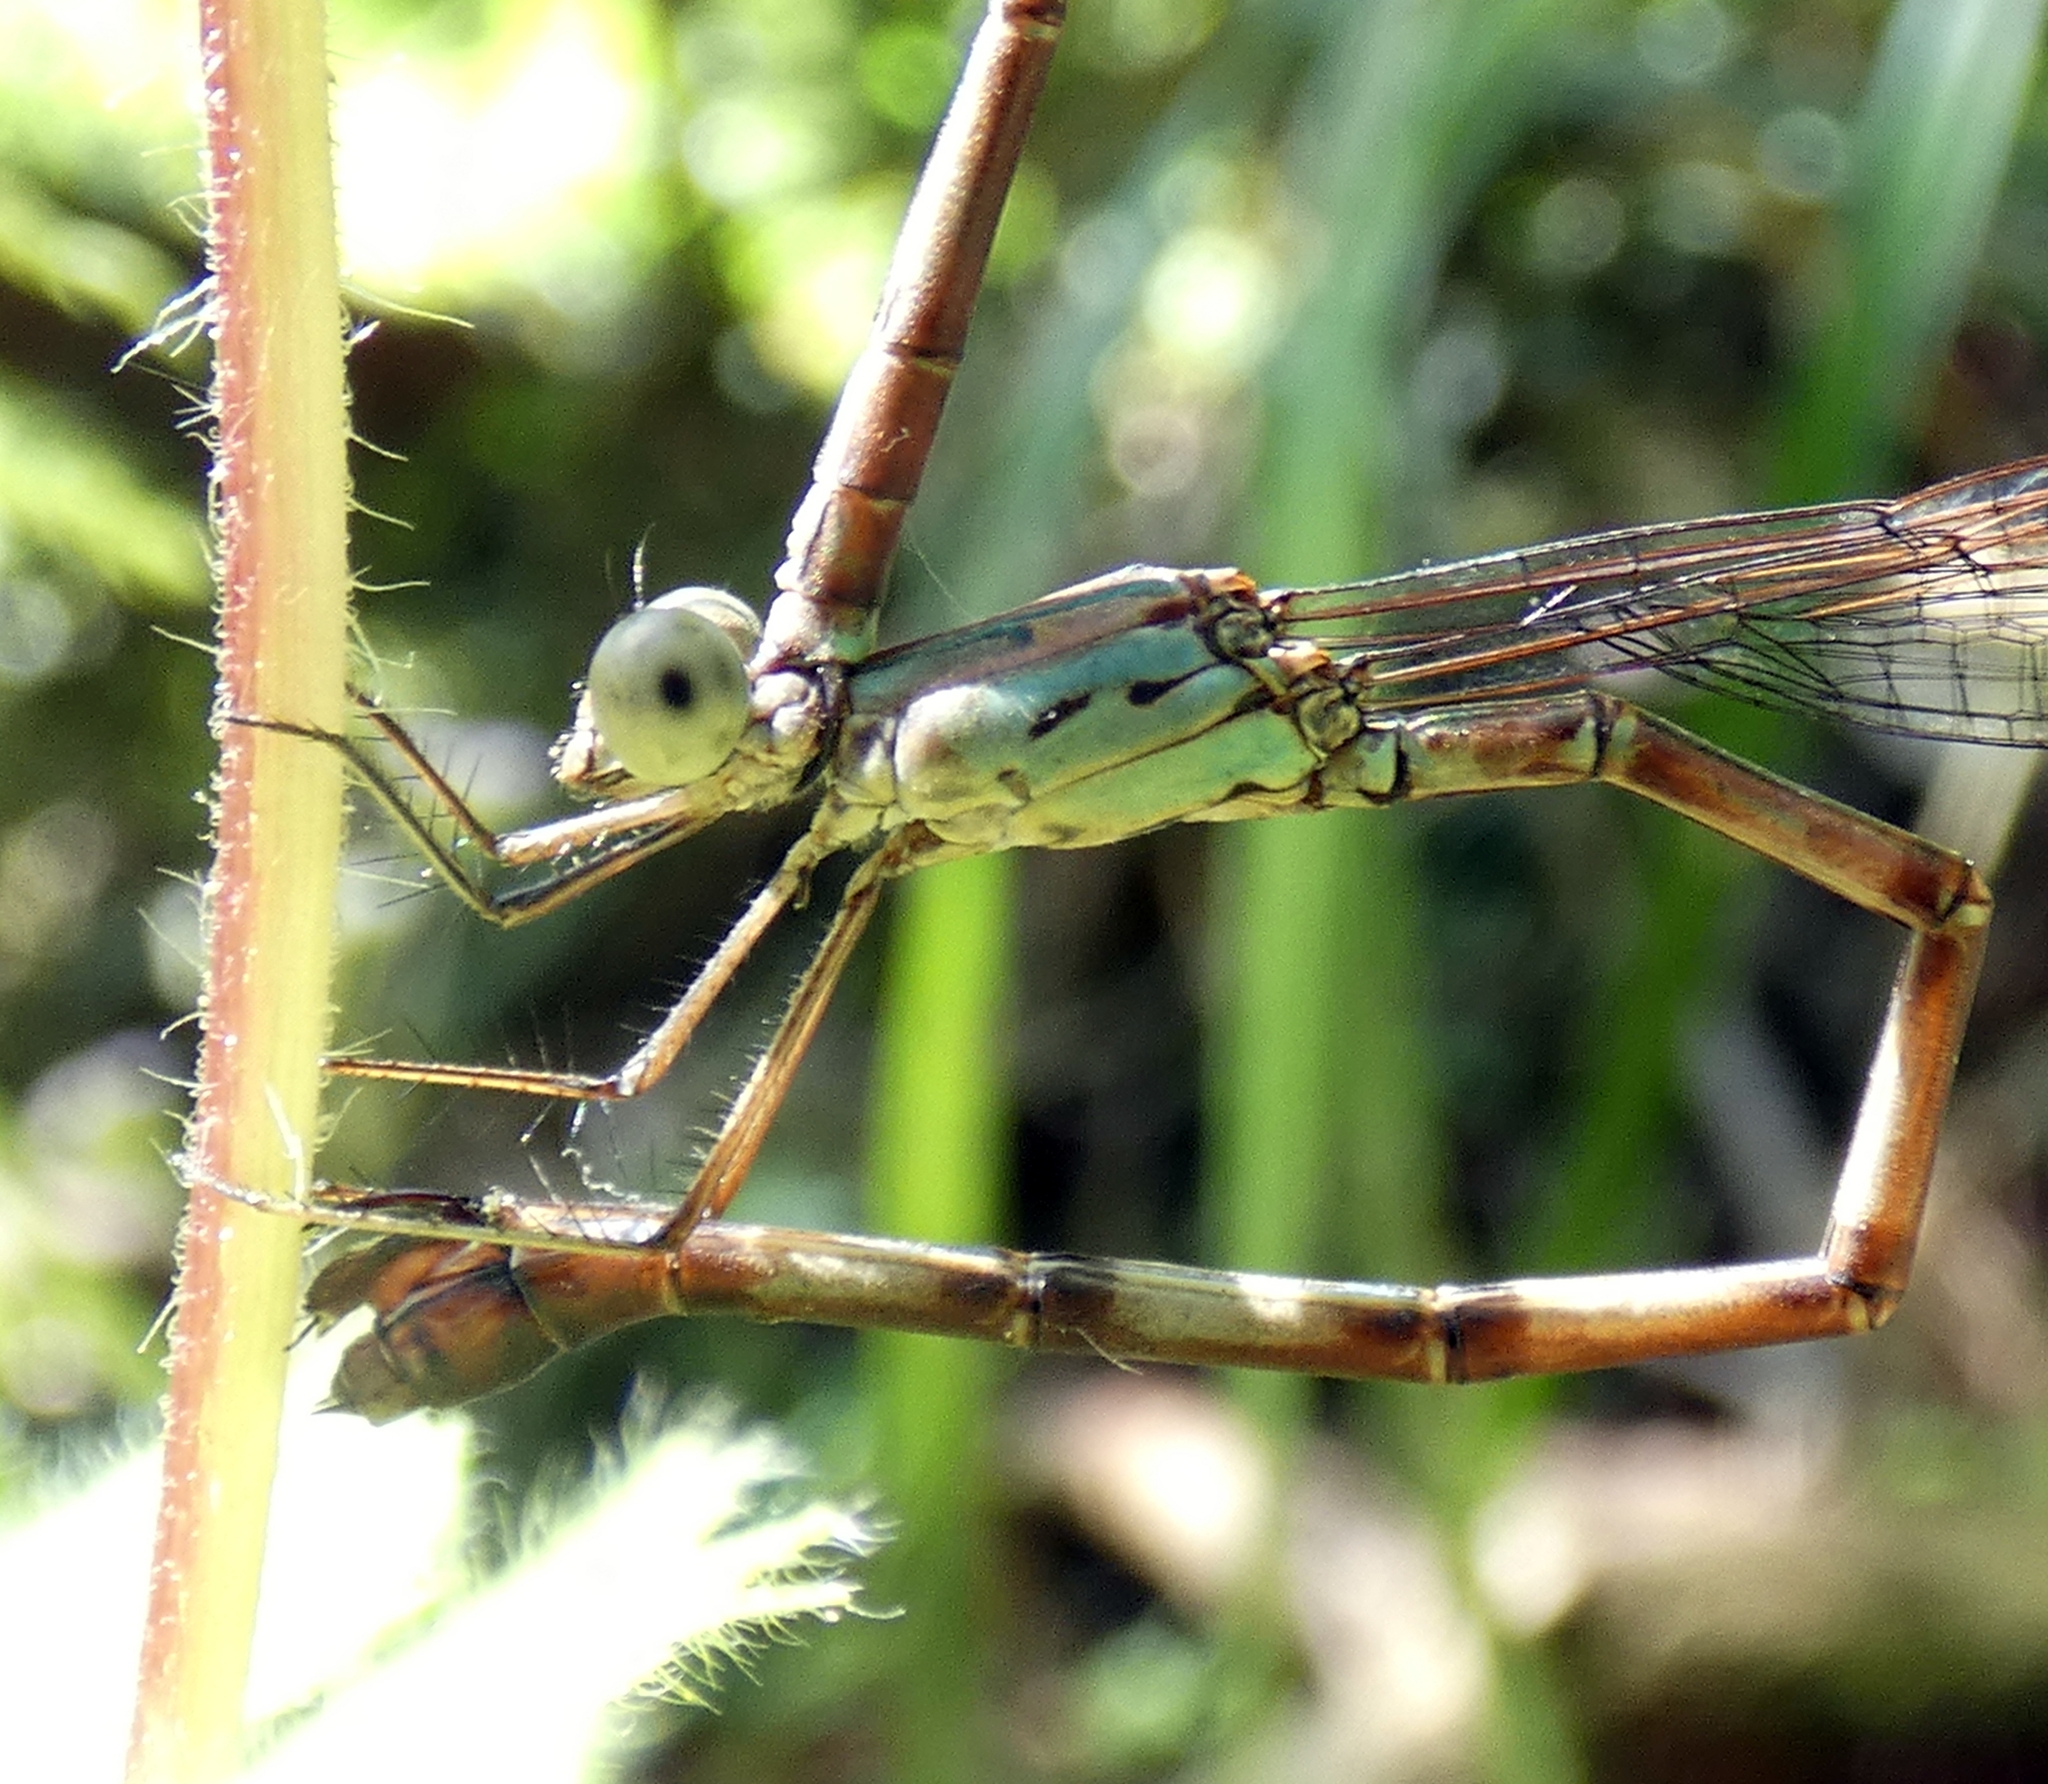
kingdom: Animalia
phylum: Arthropoda
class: Insecta
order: Odonata
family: Lestidae
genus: Indolestes
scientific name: Indolestes tenuissimus
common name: Slender reedling
